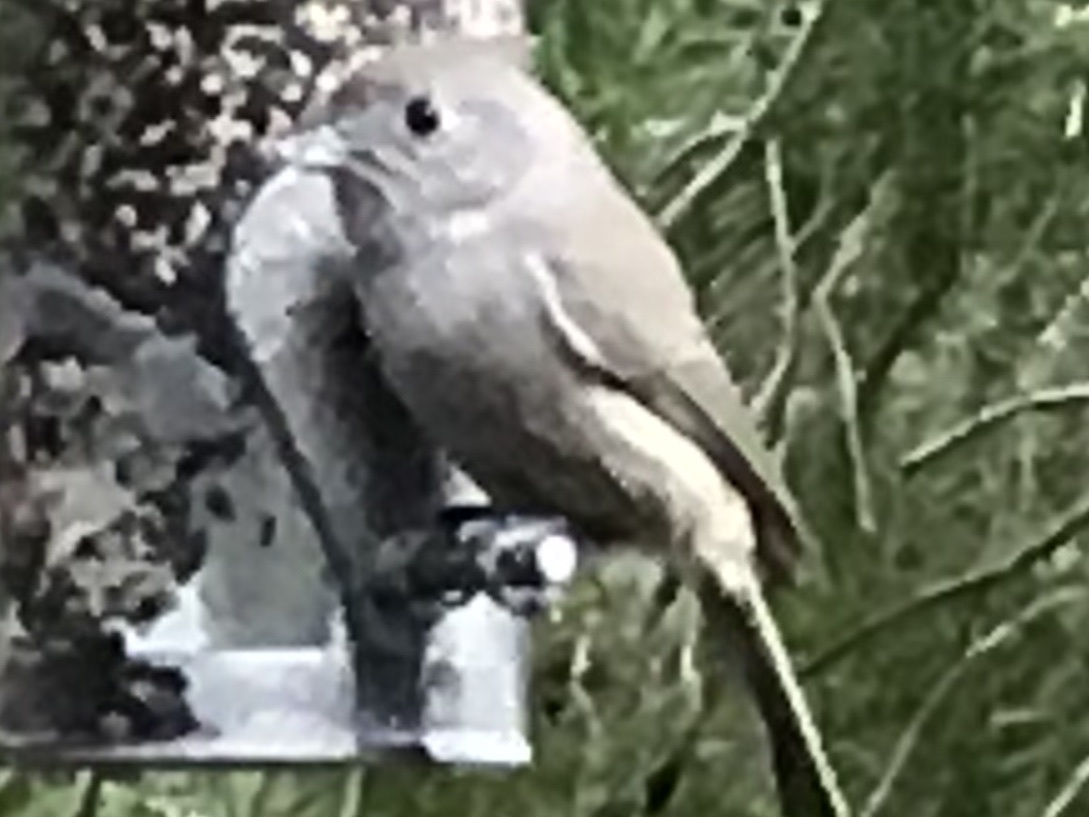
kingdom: Animalia
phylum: Chordata
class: Aves
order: Passeriformes
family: Paridae
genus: Baeolophus
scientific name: Baeolophus inornatus
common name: Oak titmouse
